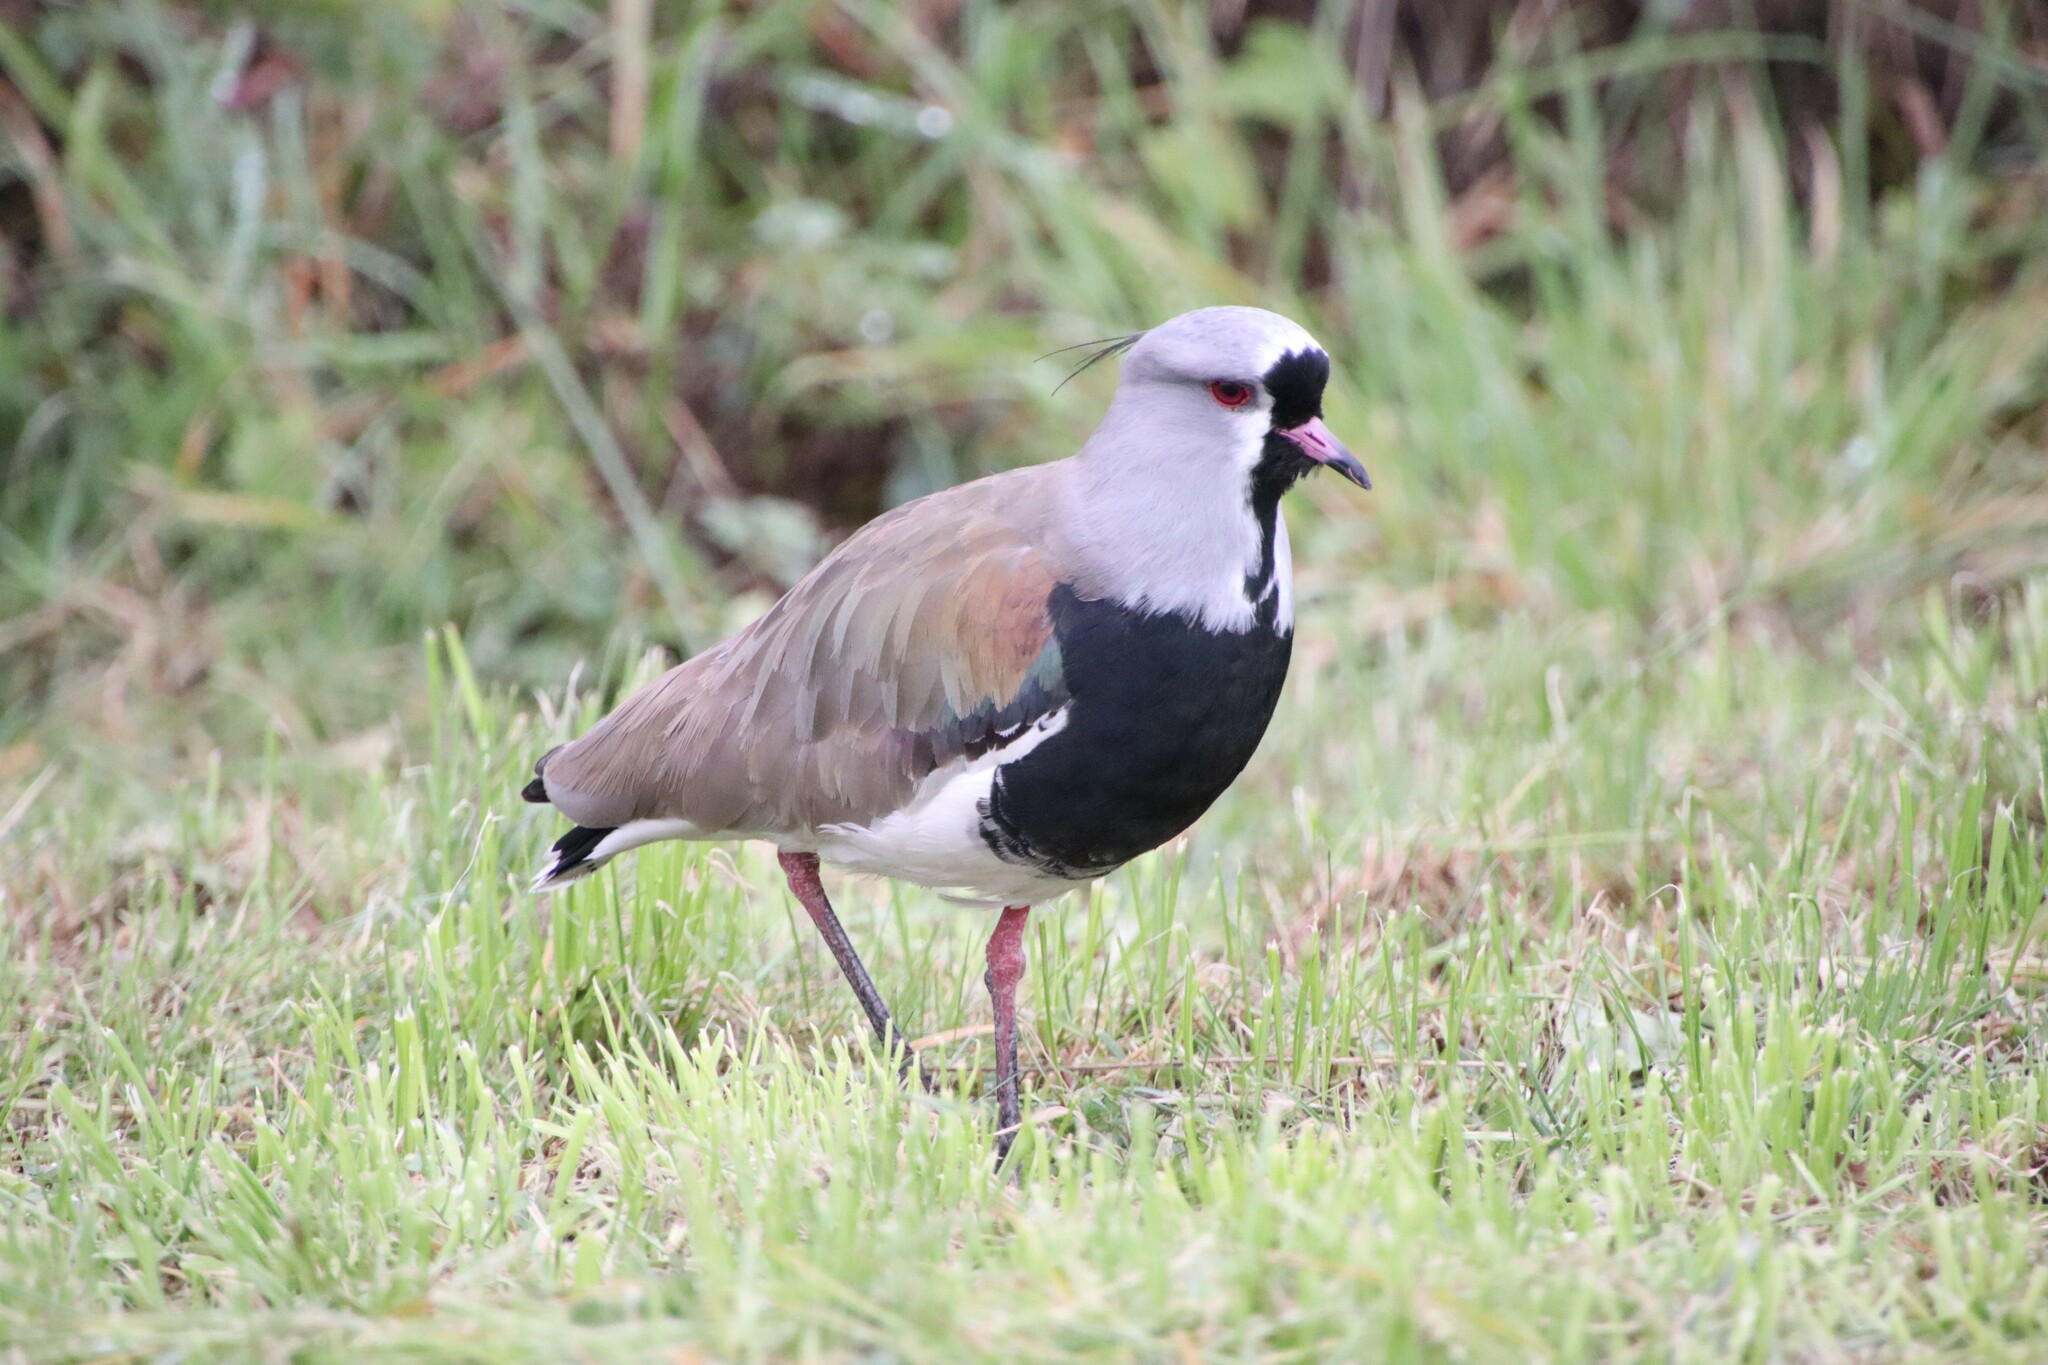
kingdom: Animalia
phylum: Chordata
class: Aves
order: Charadriiformes
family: Charadriidae
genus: Vanellus
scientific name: Vanellus chilensis
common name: Southern lapwing
